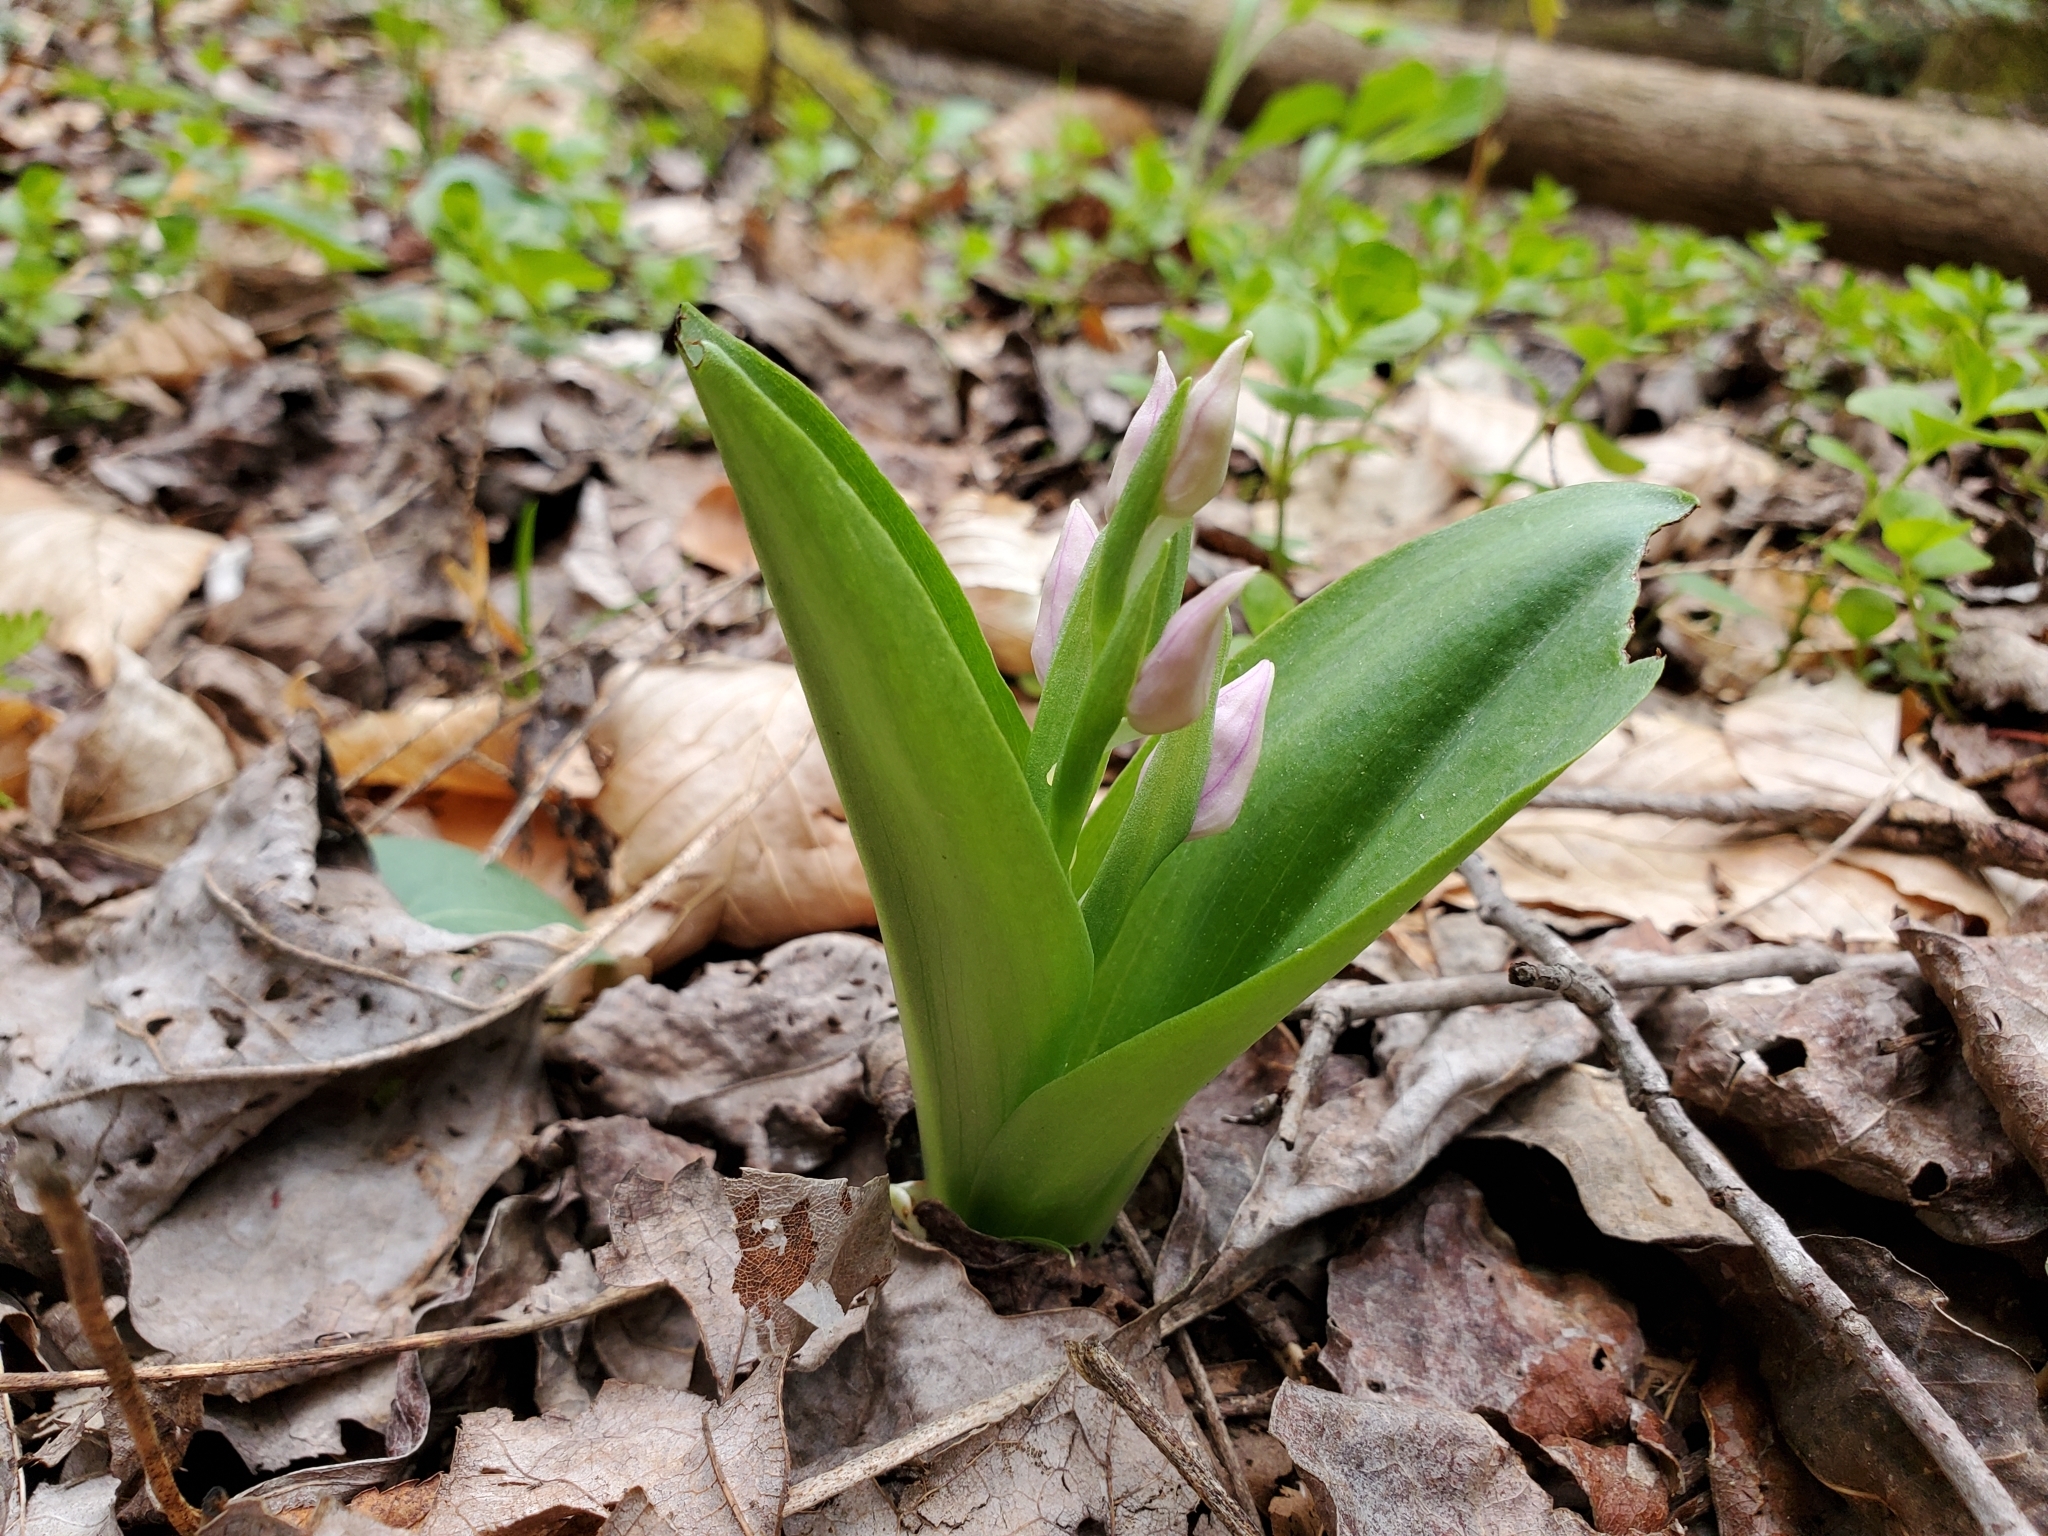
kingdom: Plantae
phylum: Tracheophyta
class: Liliopsida
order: Asparagales
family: Orchidaceae
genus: Galearis
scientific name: Galearis spectabilis
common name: Purple-hooded orchis
